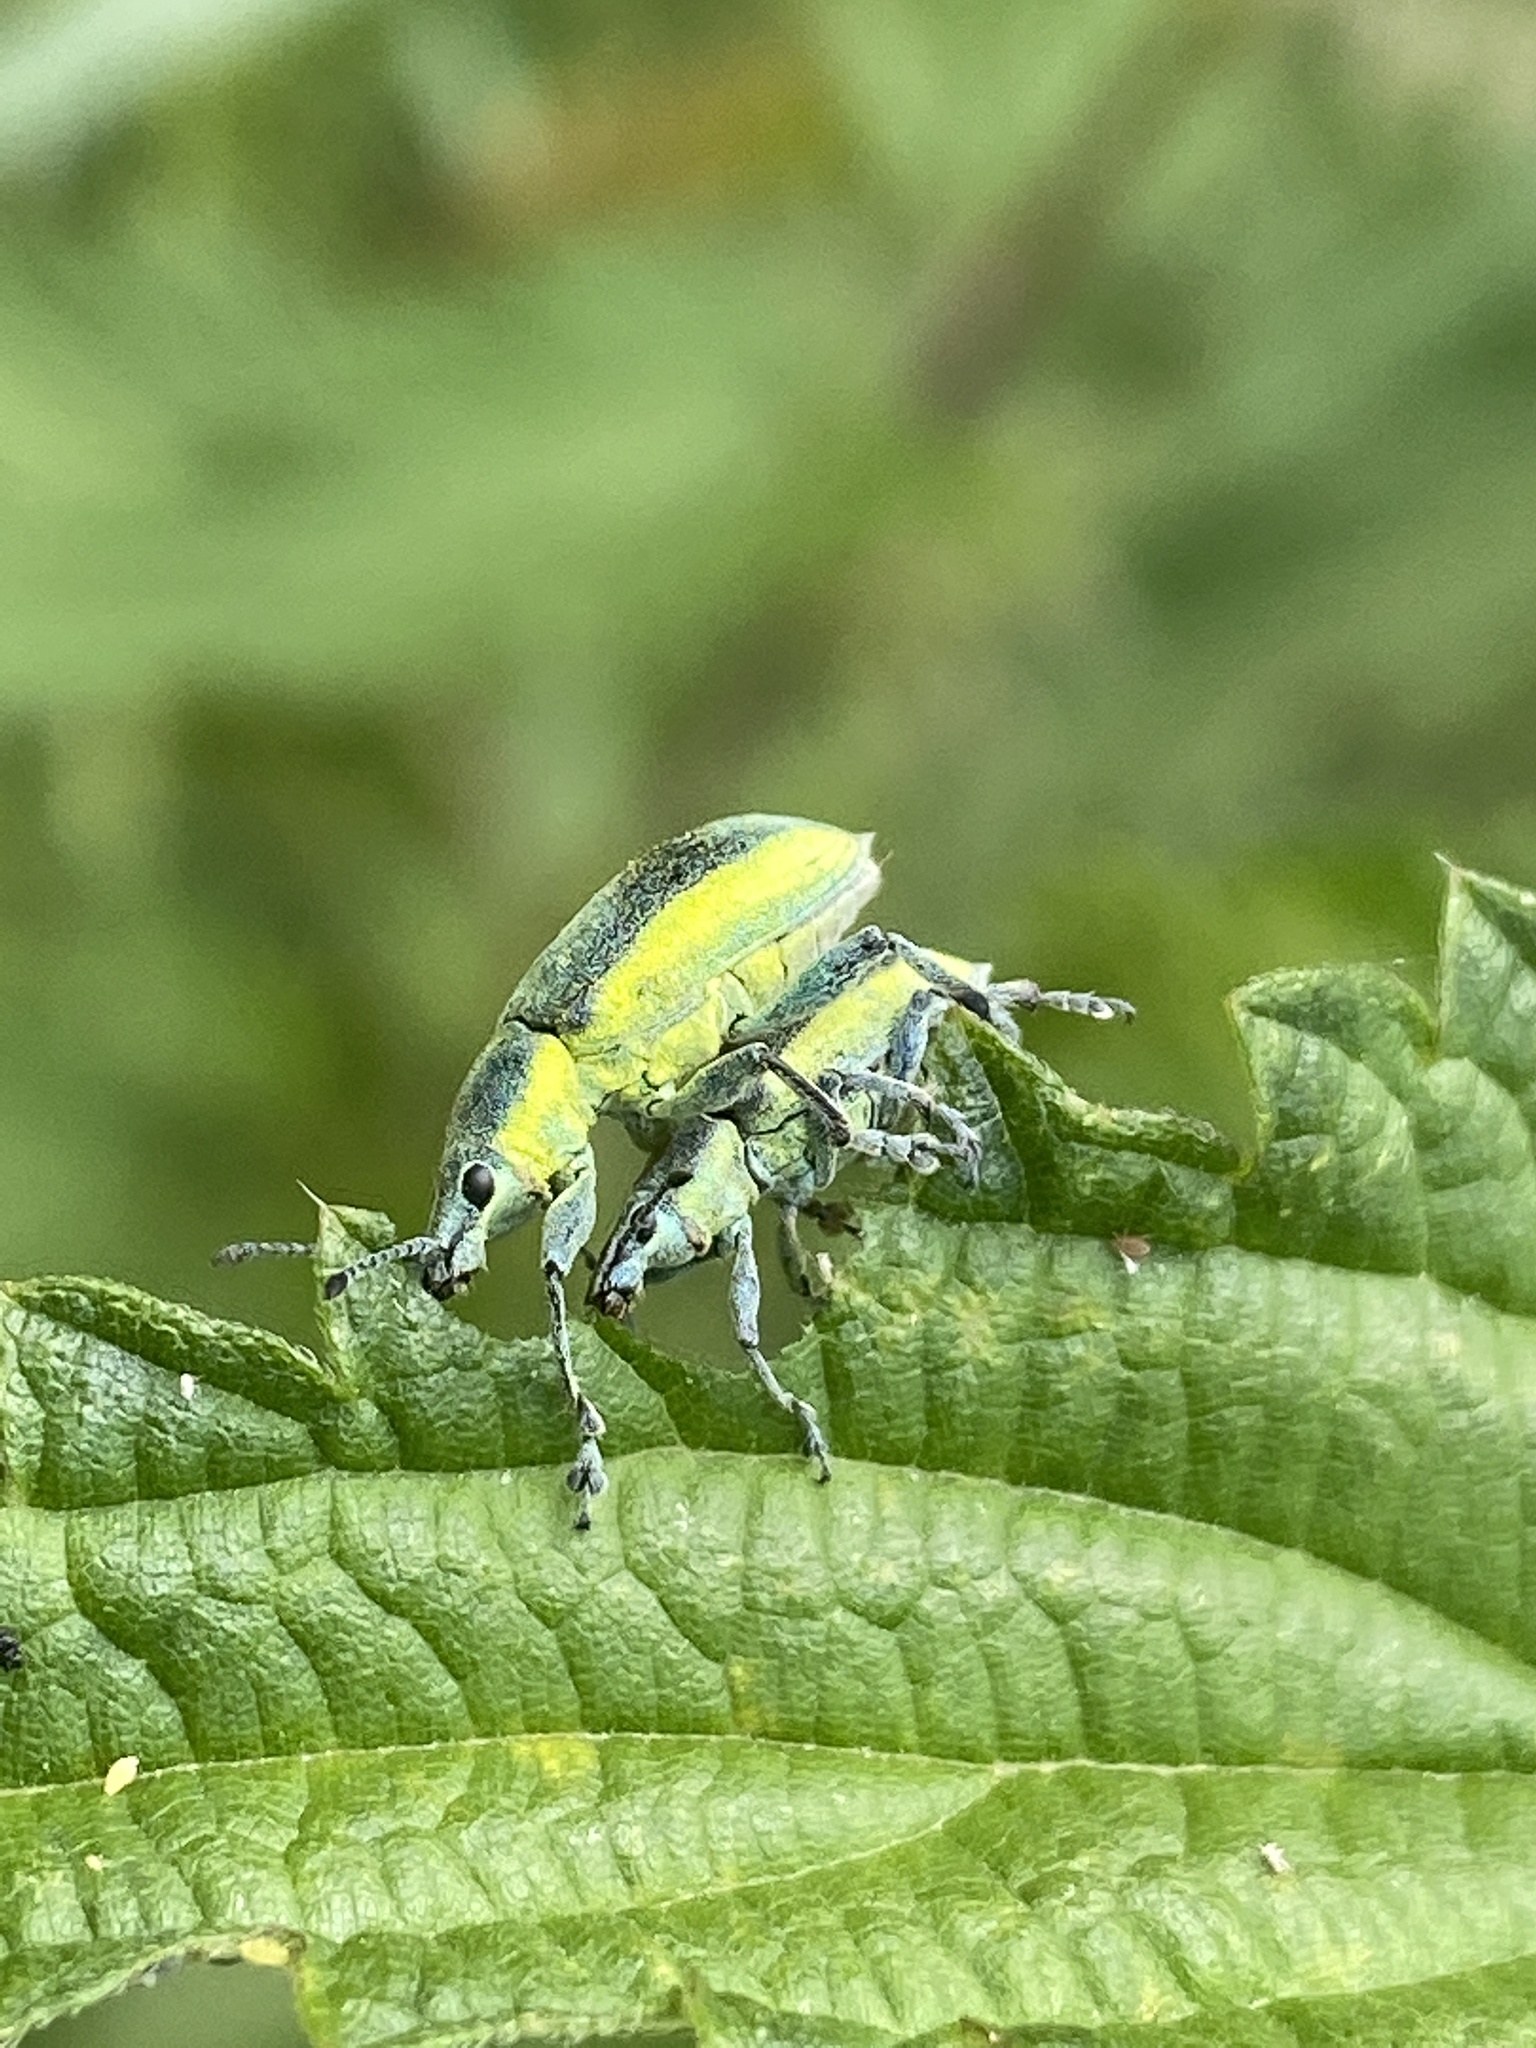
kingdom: Animalia
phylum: Arthropoda
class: Insecta
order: Coleoptera
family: Curculionidae
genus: Chlorophanus
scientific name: Chlorophanus viridis
